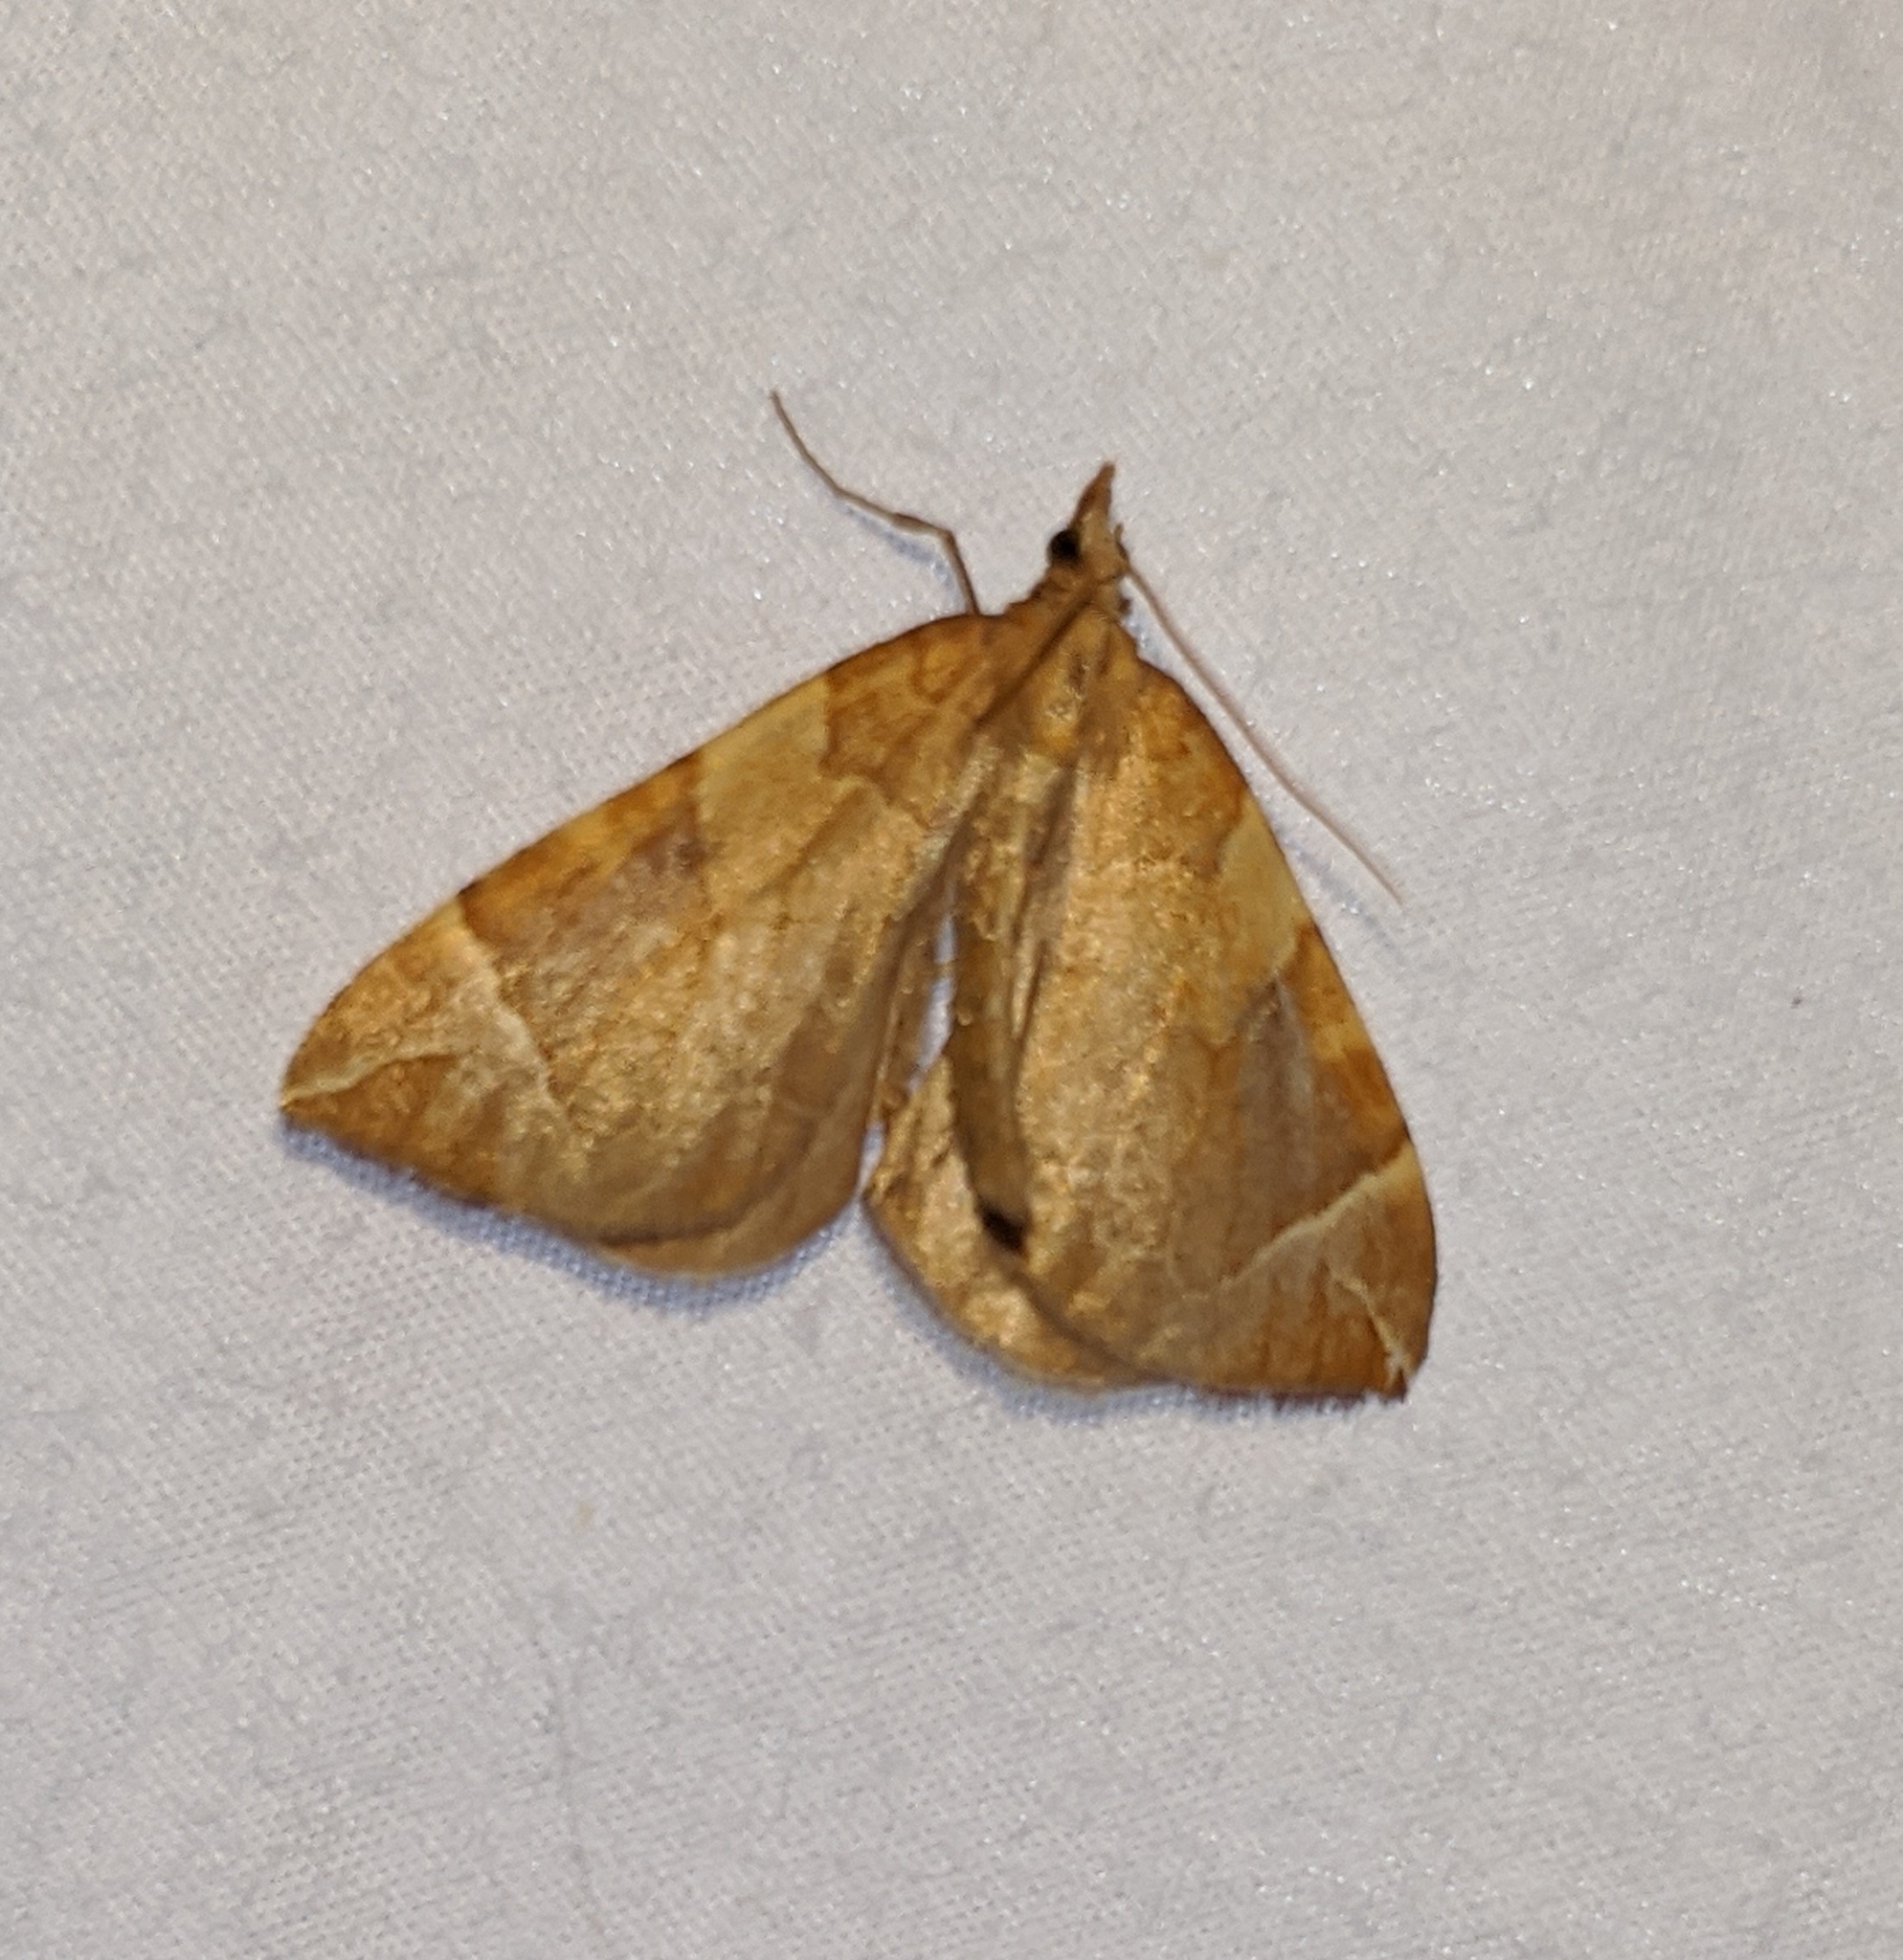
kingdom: Animalia
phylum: Arthropoda
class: Insecta
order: Lepidoptera
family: Geometridae
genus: Eulithis
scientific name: Eulithis testata
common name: Chevron
